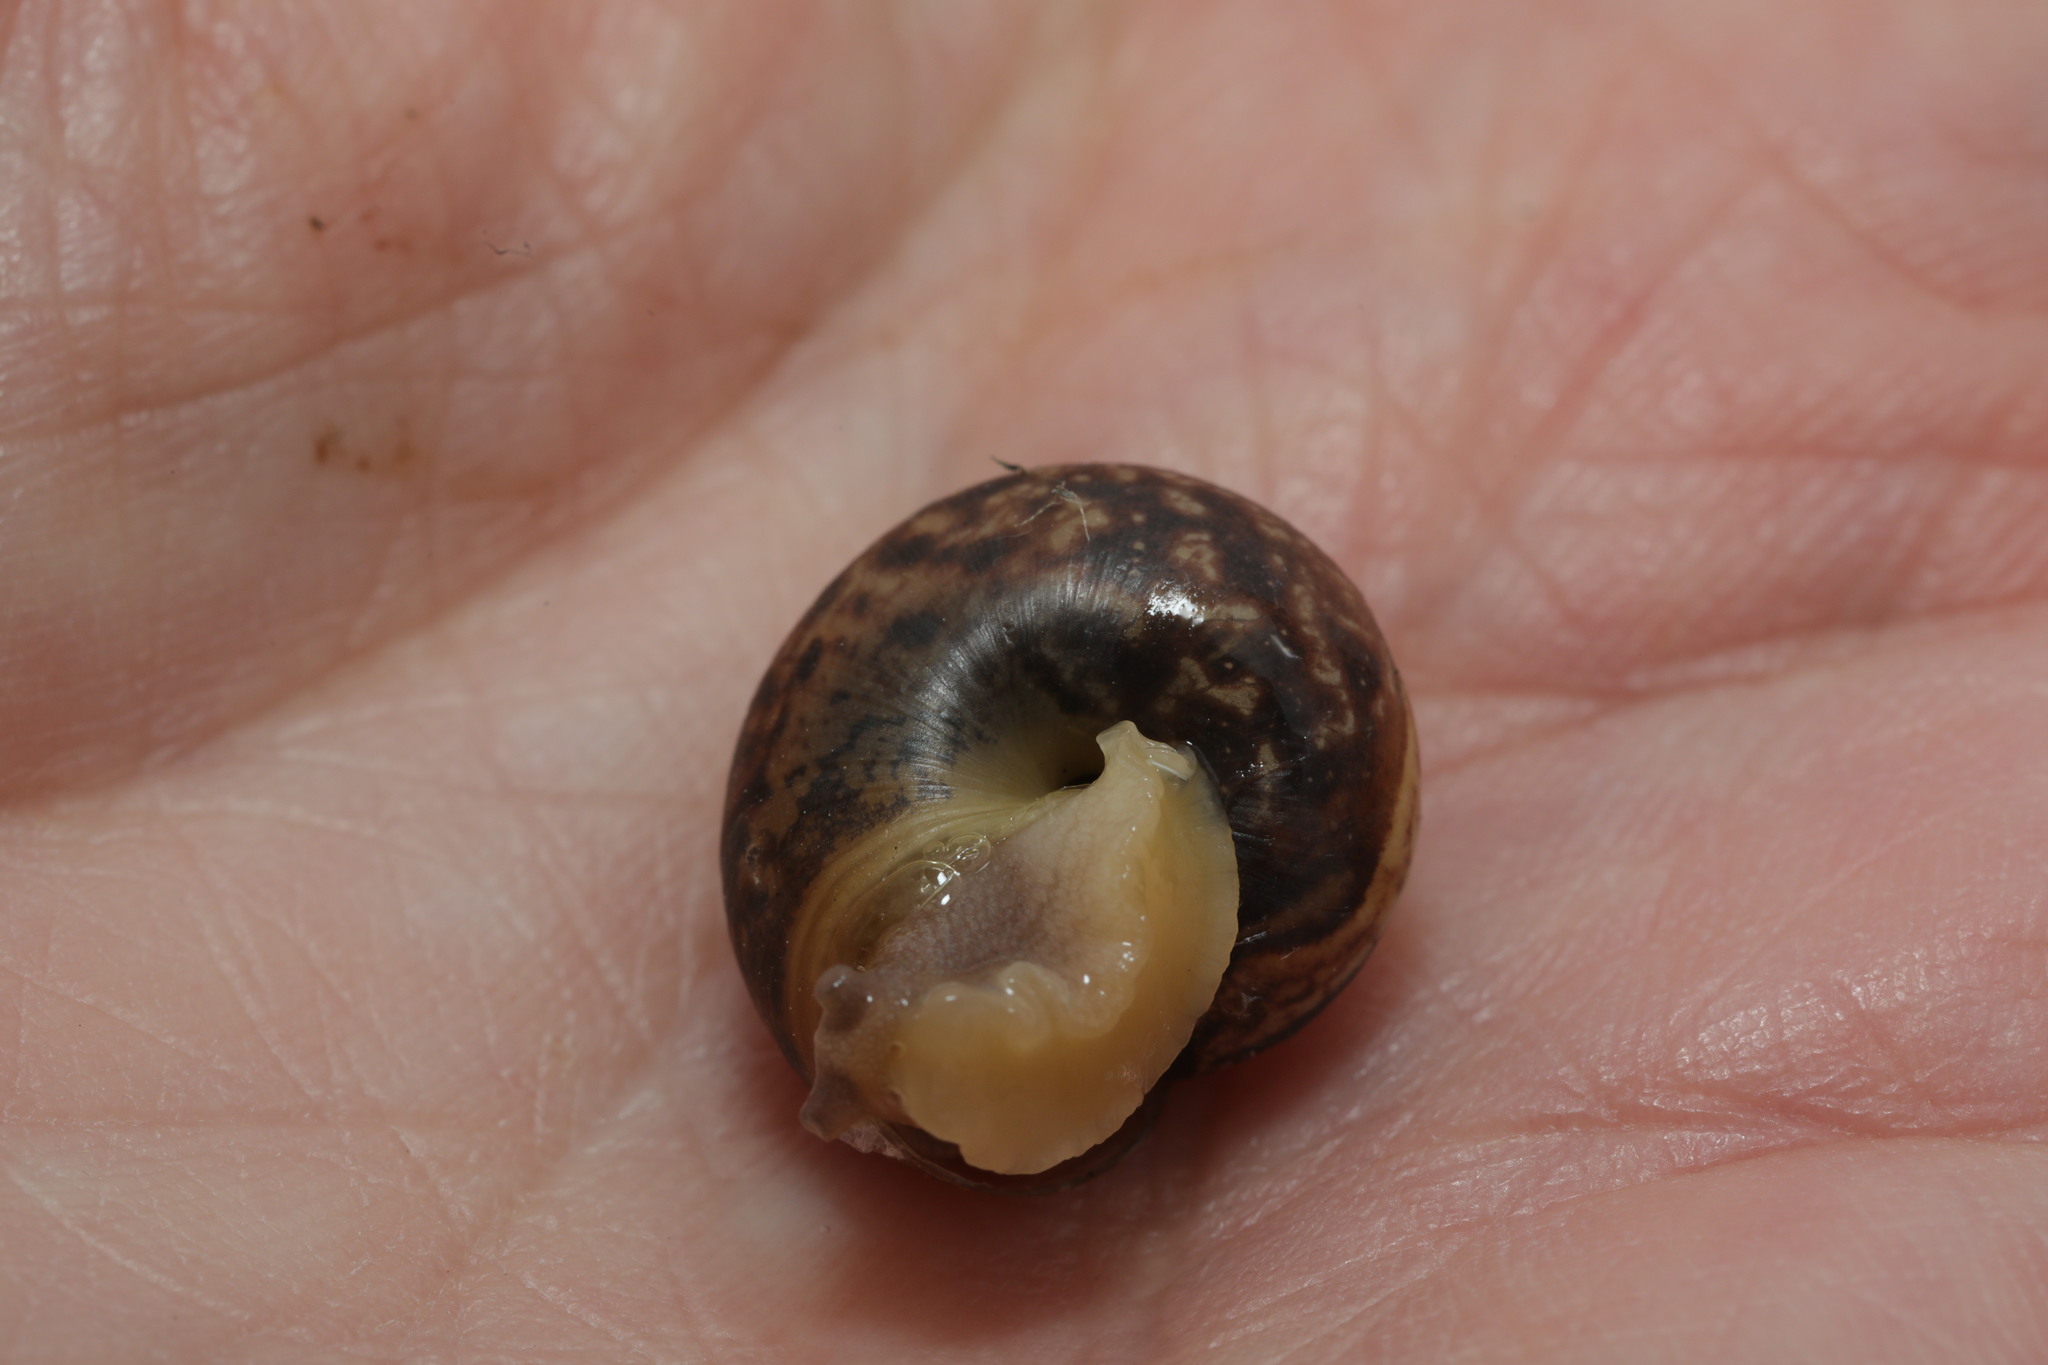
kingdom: Animalia
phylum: Mollusca
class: Gastropoda
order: Stylommatophora
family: Hygromiidae
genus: Monacha
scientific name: Monacha cantiana
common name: Kentish snail
